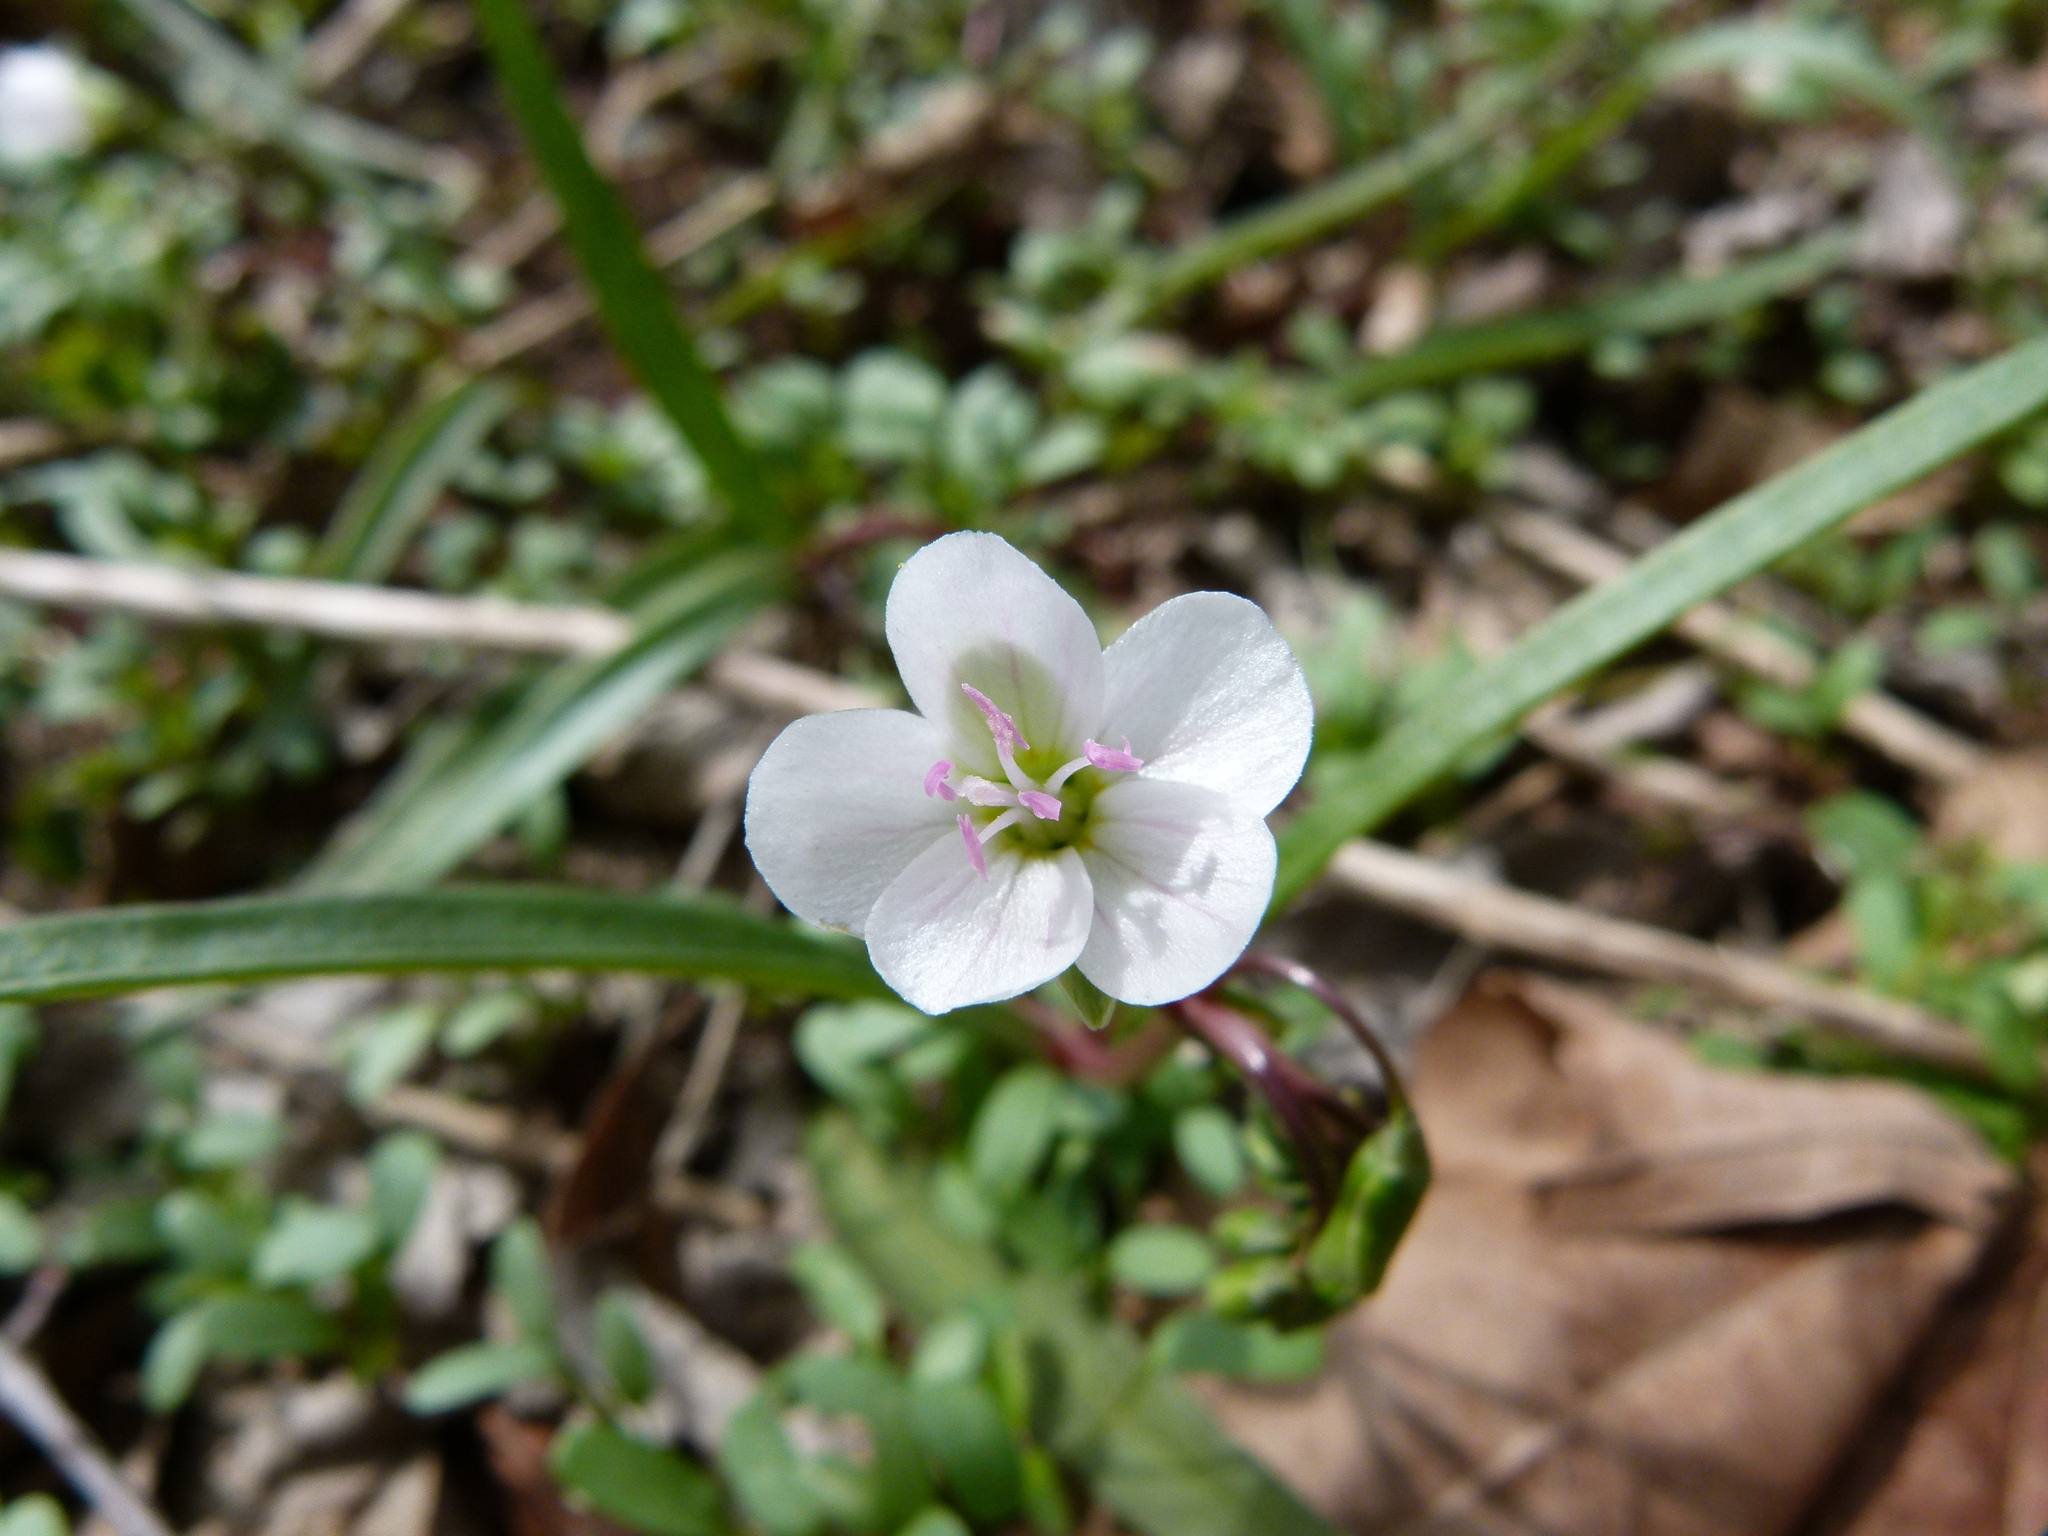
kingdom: Plantae
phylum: Tracheophyta
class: Magnoliopsida
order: Caryophyllales
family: Montiaceae
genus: Claytonia
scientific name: Claytonia virginica
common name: Virginia springbeauty
